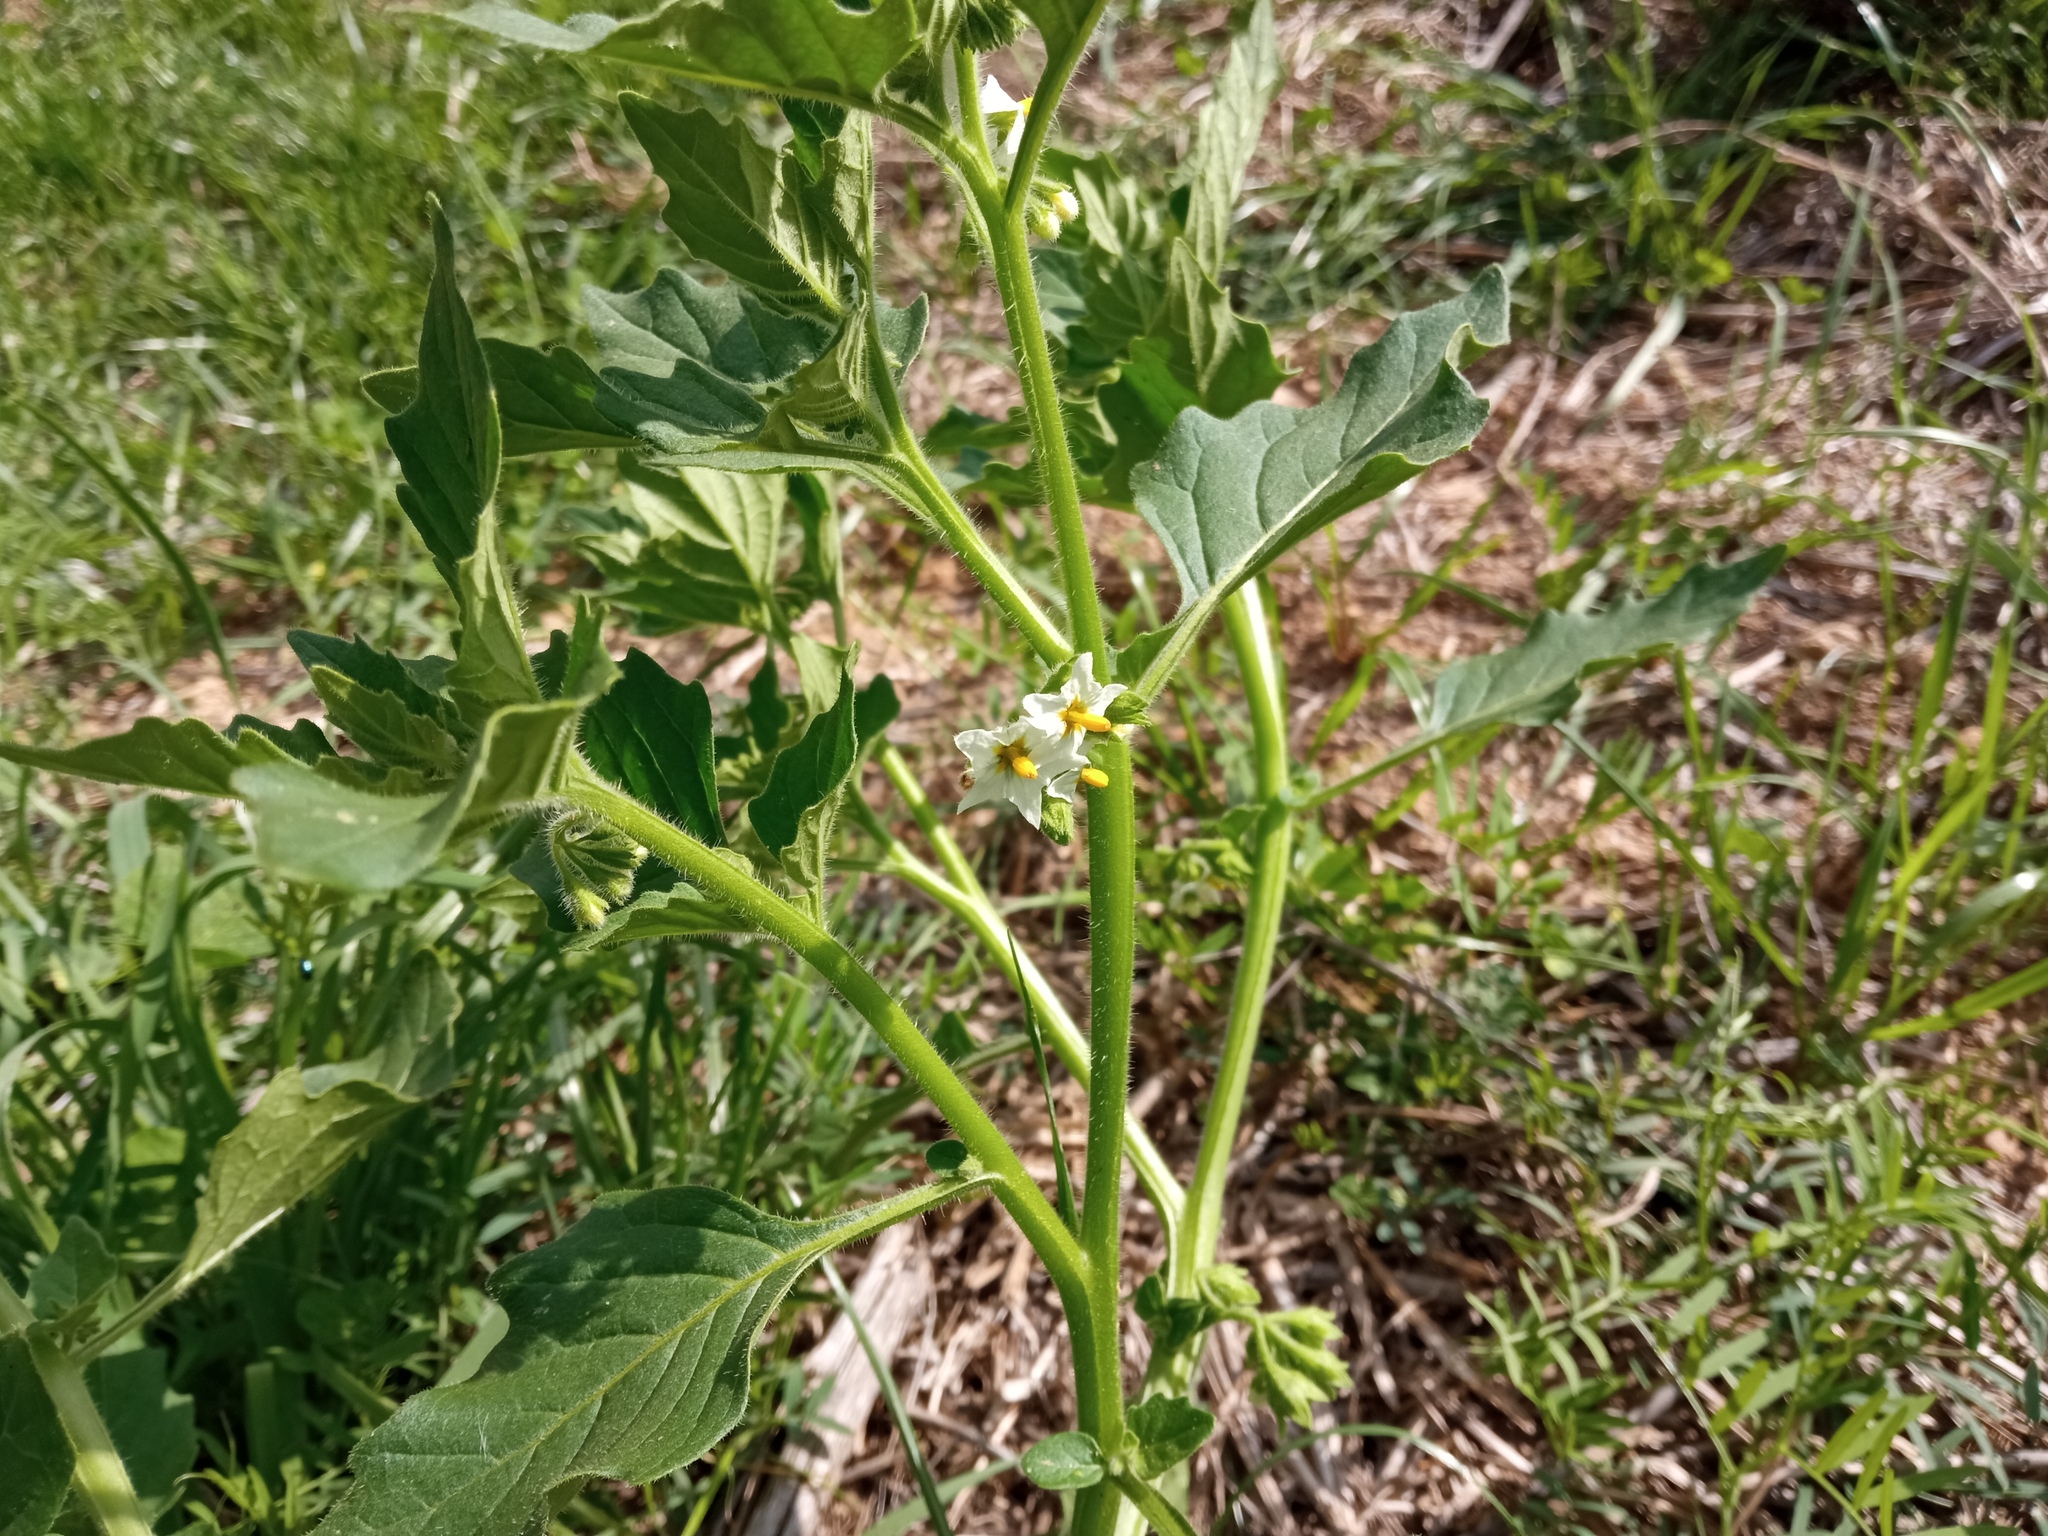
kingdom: Plantae
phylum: Tracheophyta
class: Magnoliopsida
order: Solanales
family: Solanaceae
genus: Solanum
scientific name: Solanum nitidibaccatum
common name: Hairy nightshade
